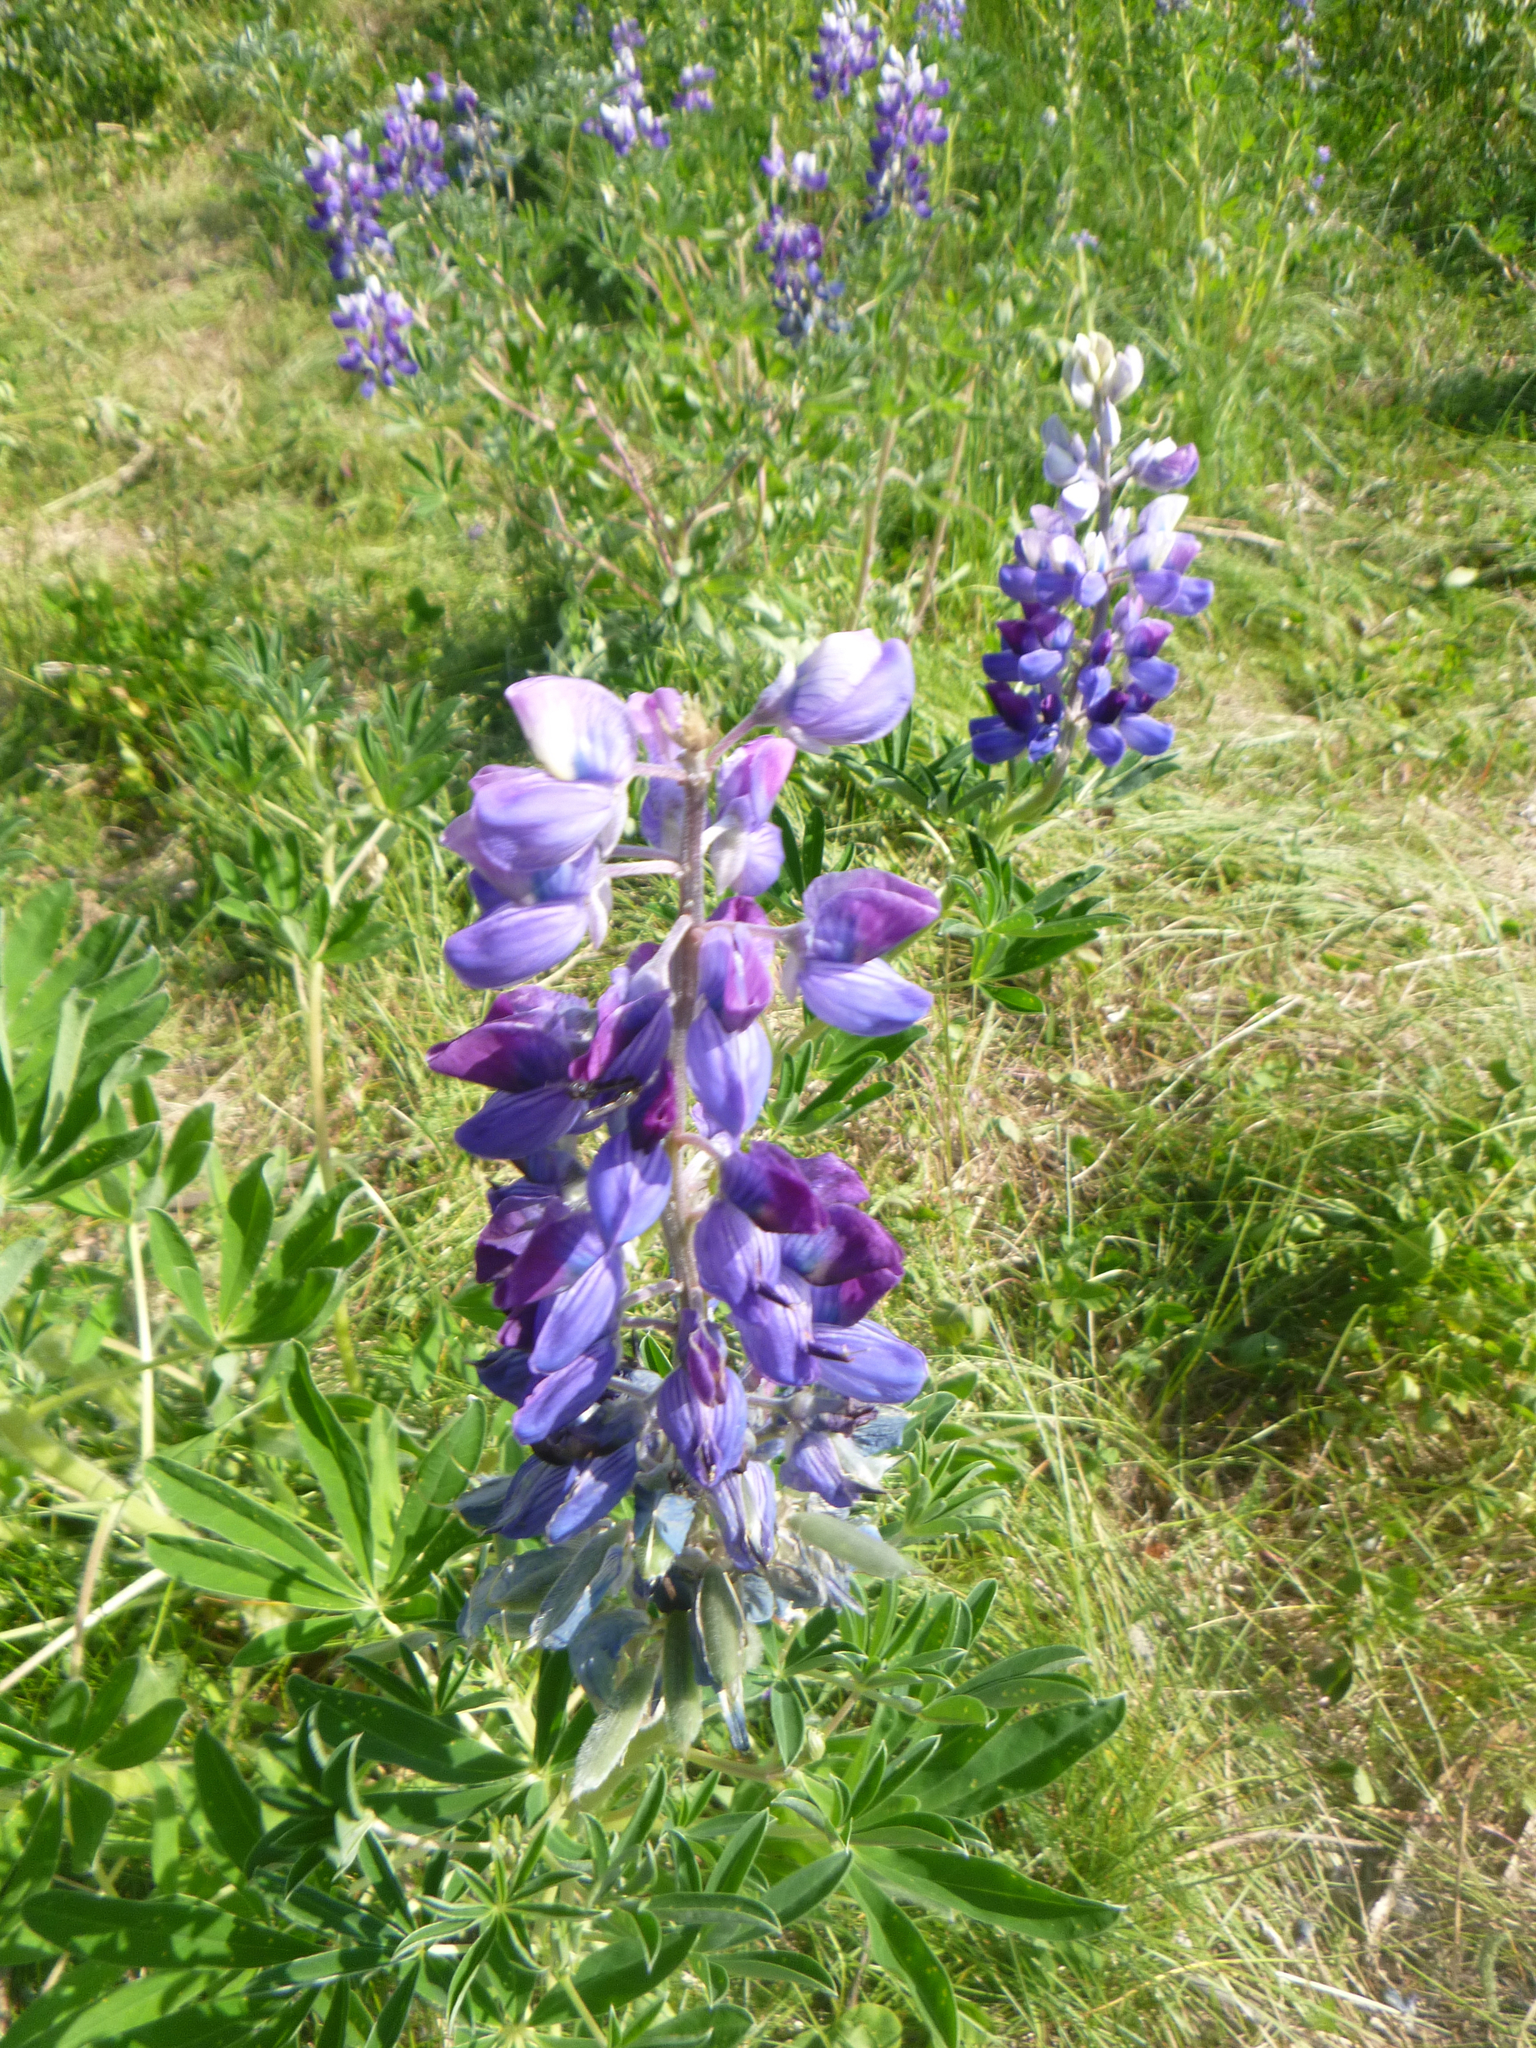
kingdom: Plantae
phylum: Tracheophyta
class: Magnoliopsida
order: Fabales
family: Fabaceae
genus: Lupinus
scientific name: Lupinus nootkatensis
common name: Nootka lupine
